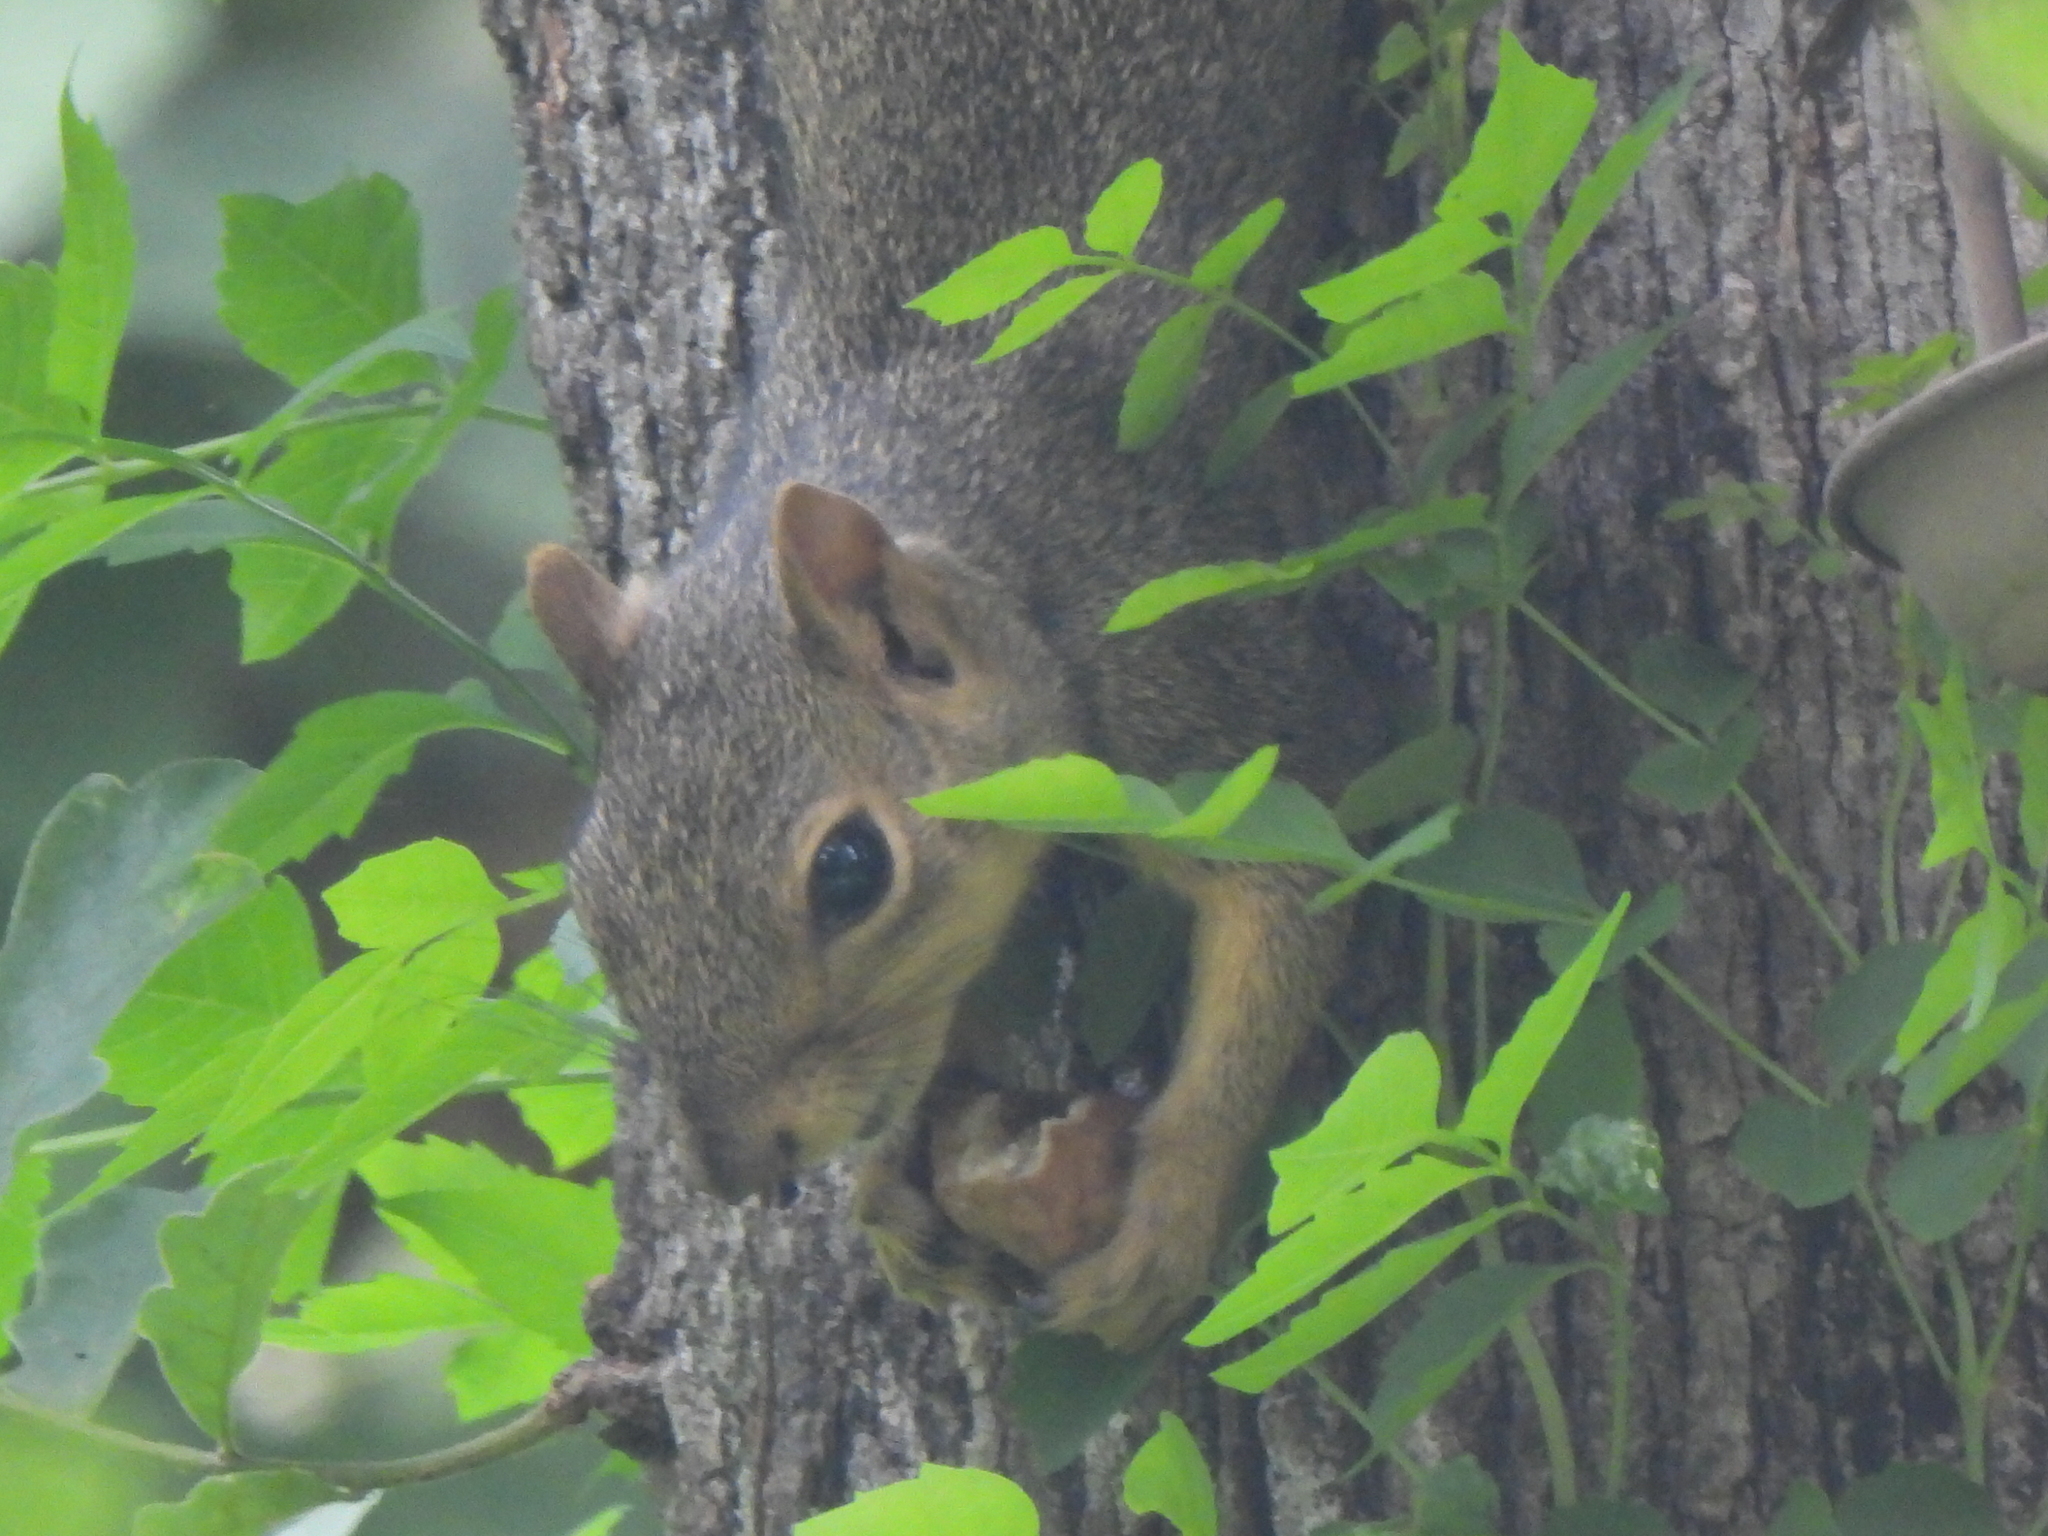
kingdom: Animalia
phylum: Chordata
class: Mammalia
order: Rodentia
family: Sciuridae
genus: Sciurus
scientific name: Sciurus niger
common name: Fox squirrel
